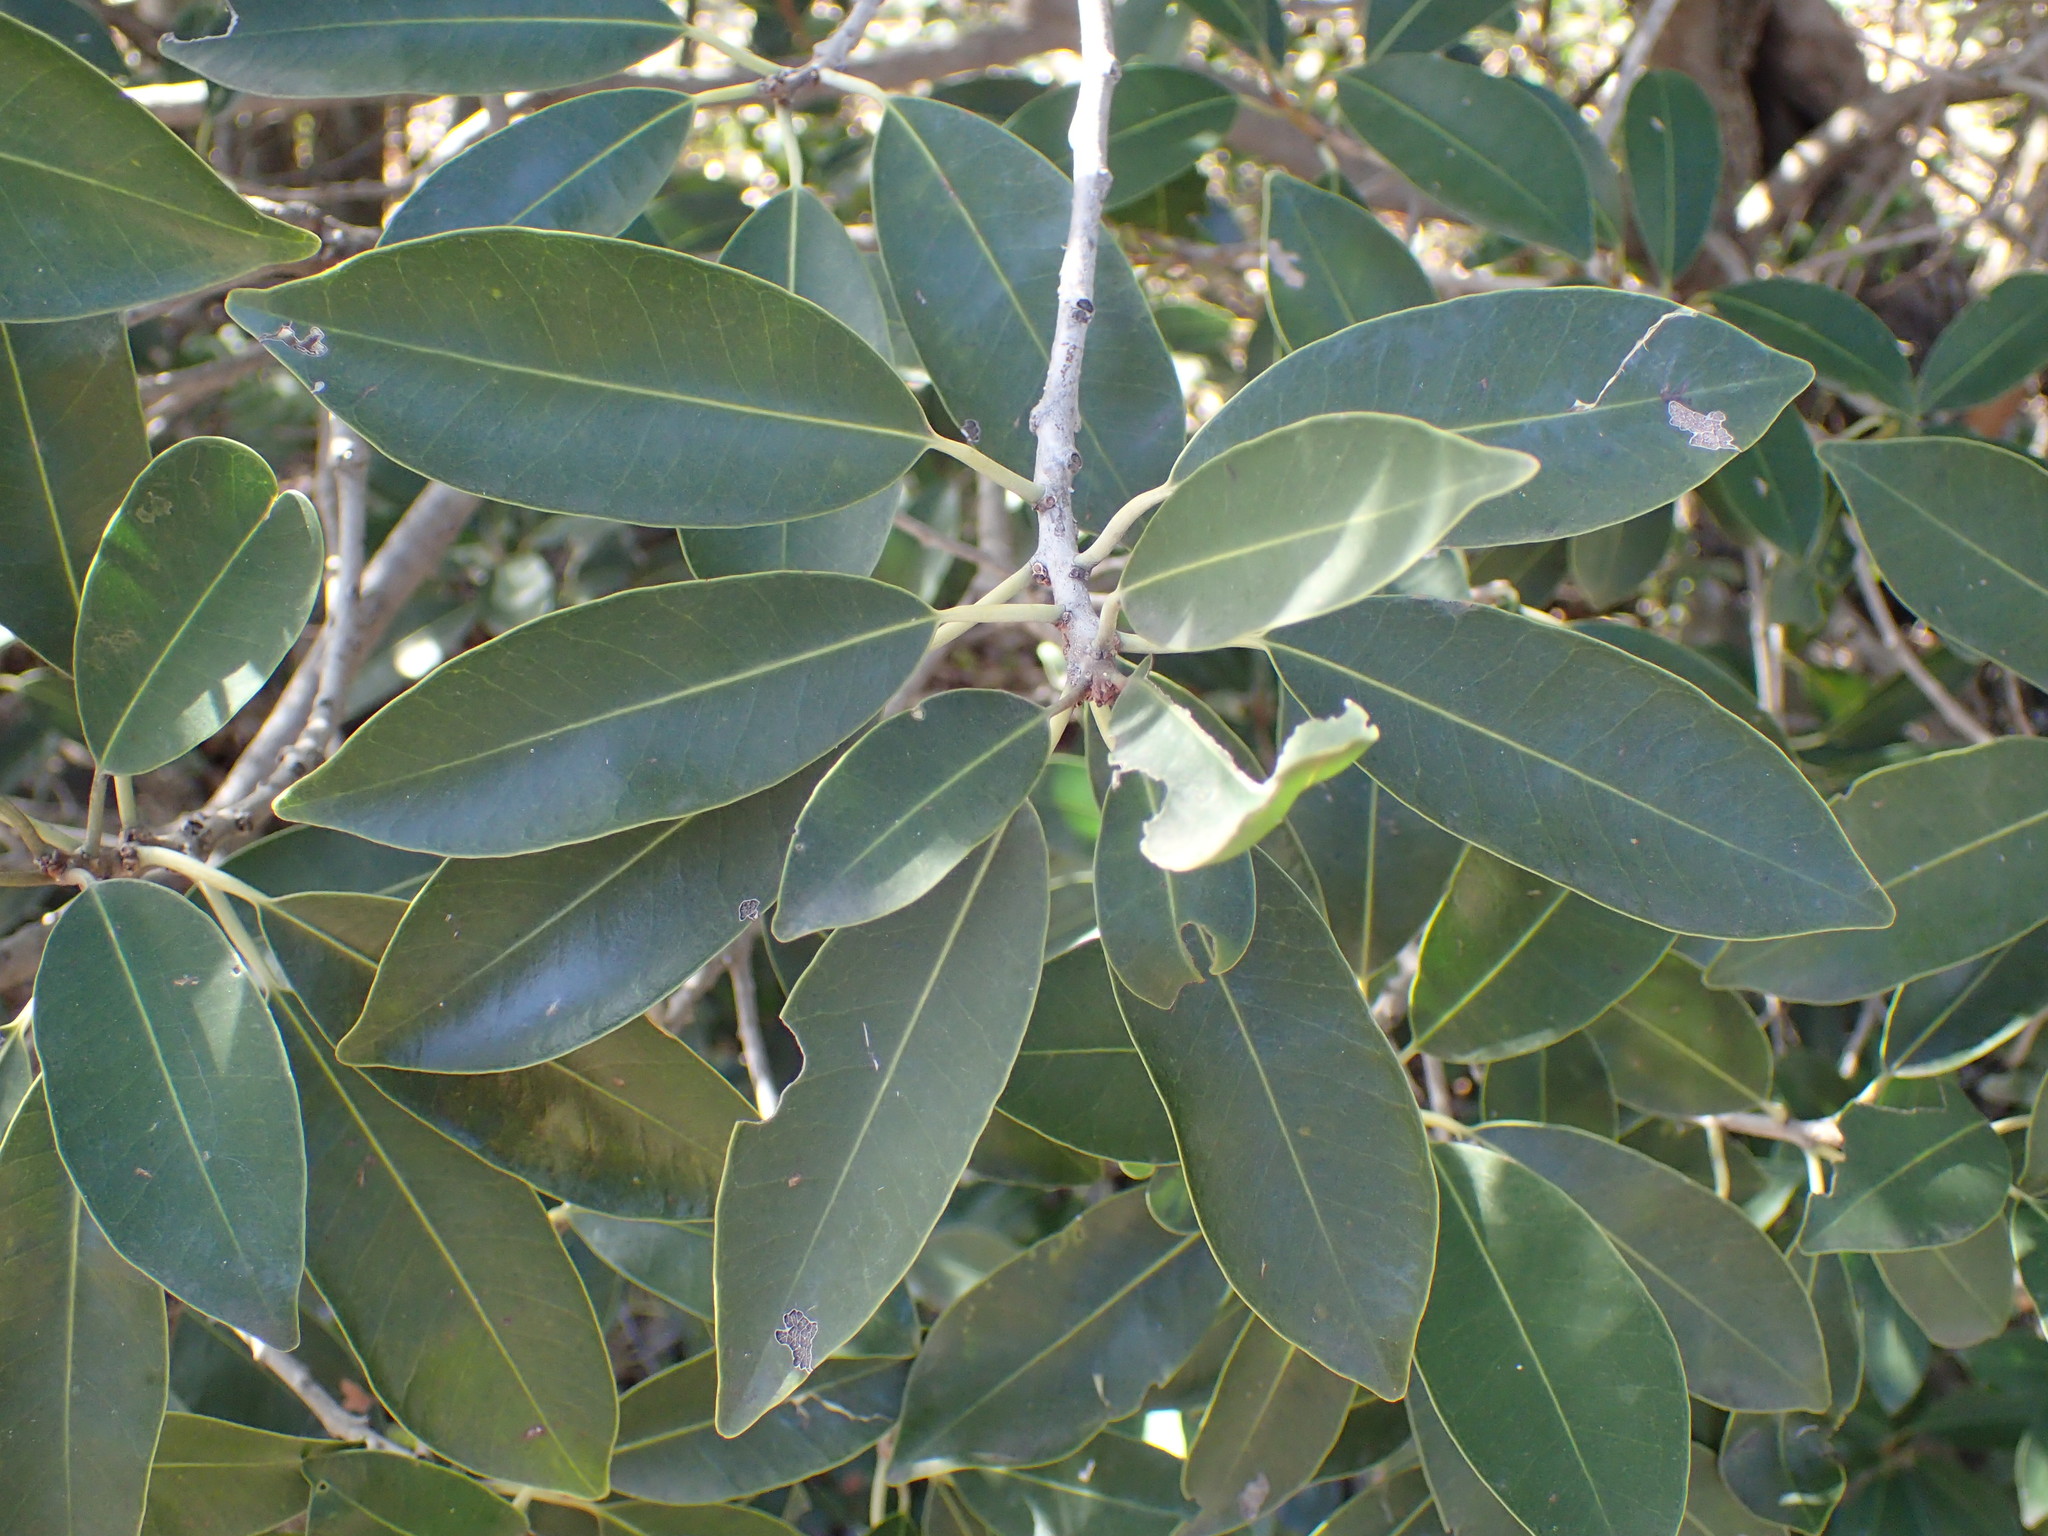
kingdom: Plantae
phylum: Tracheophyta
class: Magnoliopsida
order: Ericales
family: Sapotaceae
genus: Mimusops
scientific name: Mimusops zeyheri
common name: Transvaal red milkwood
